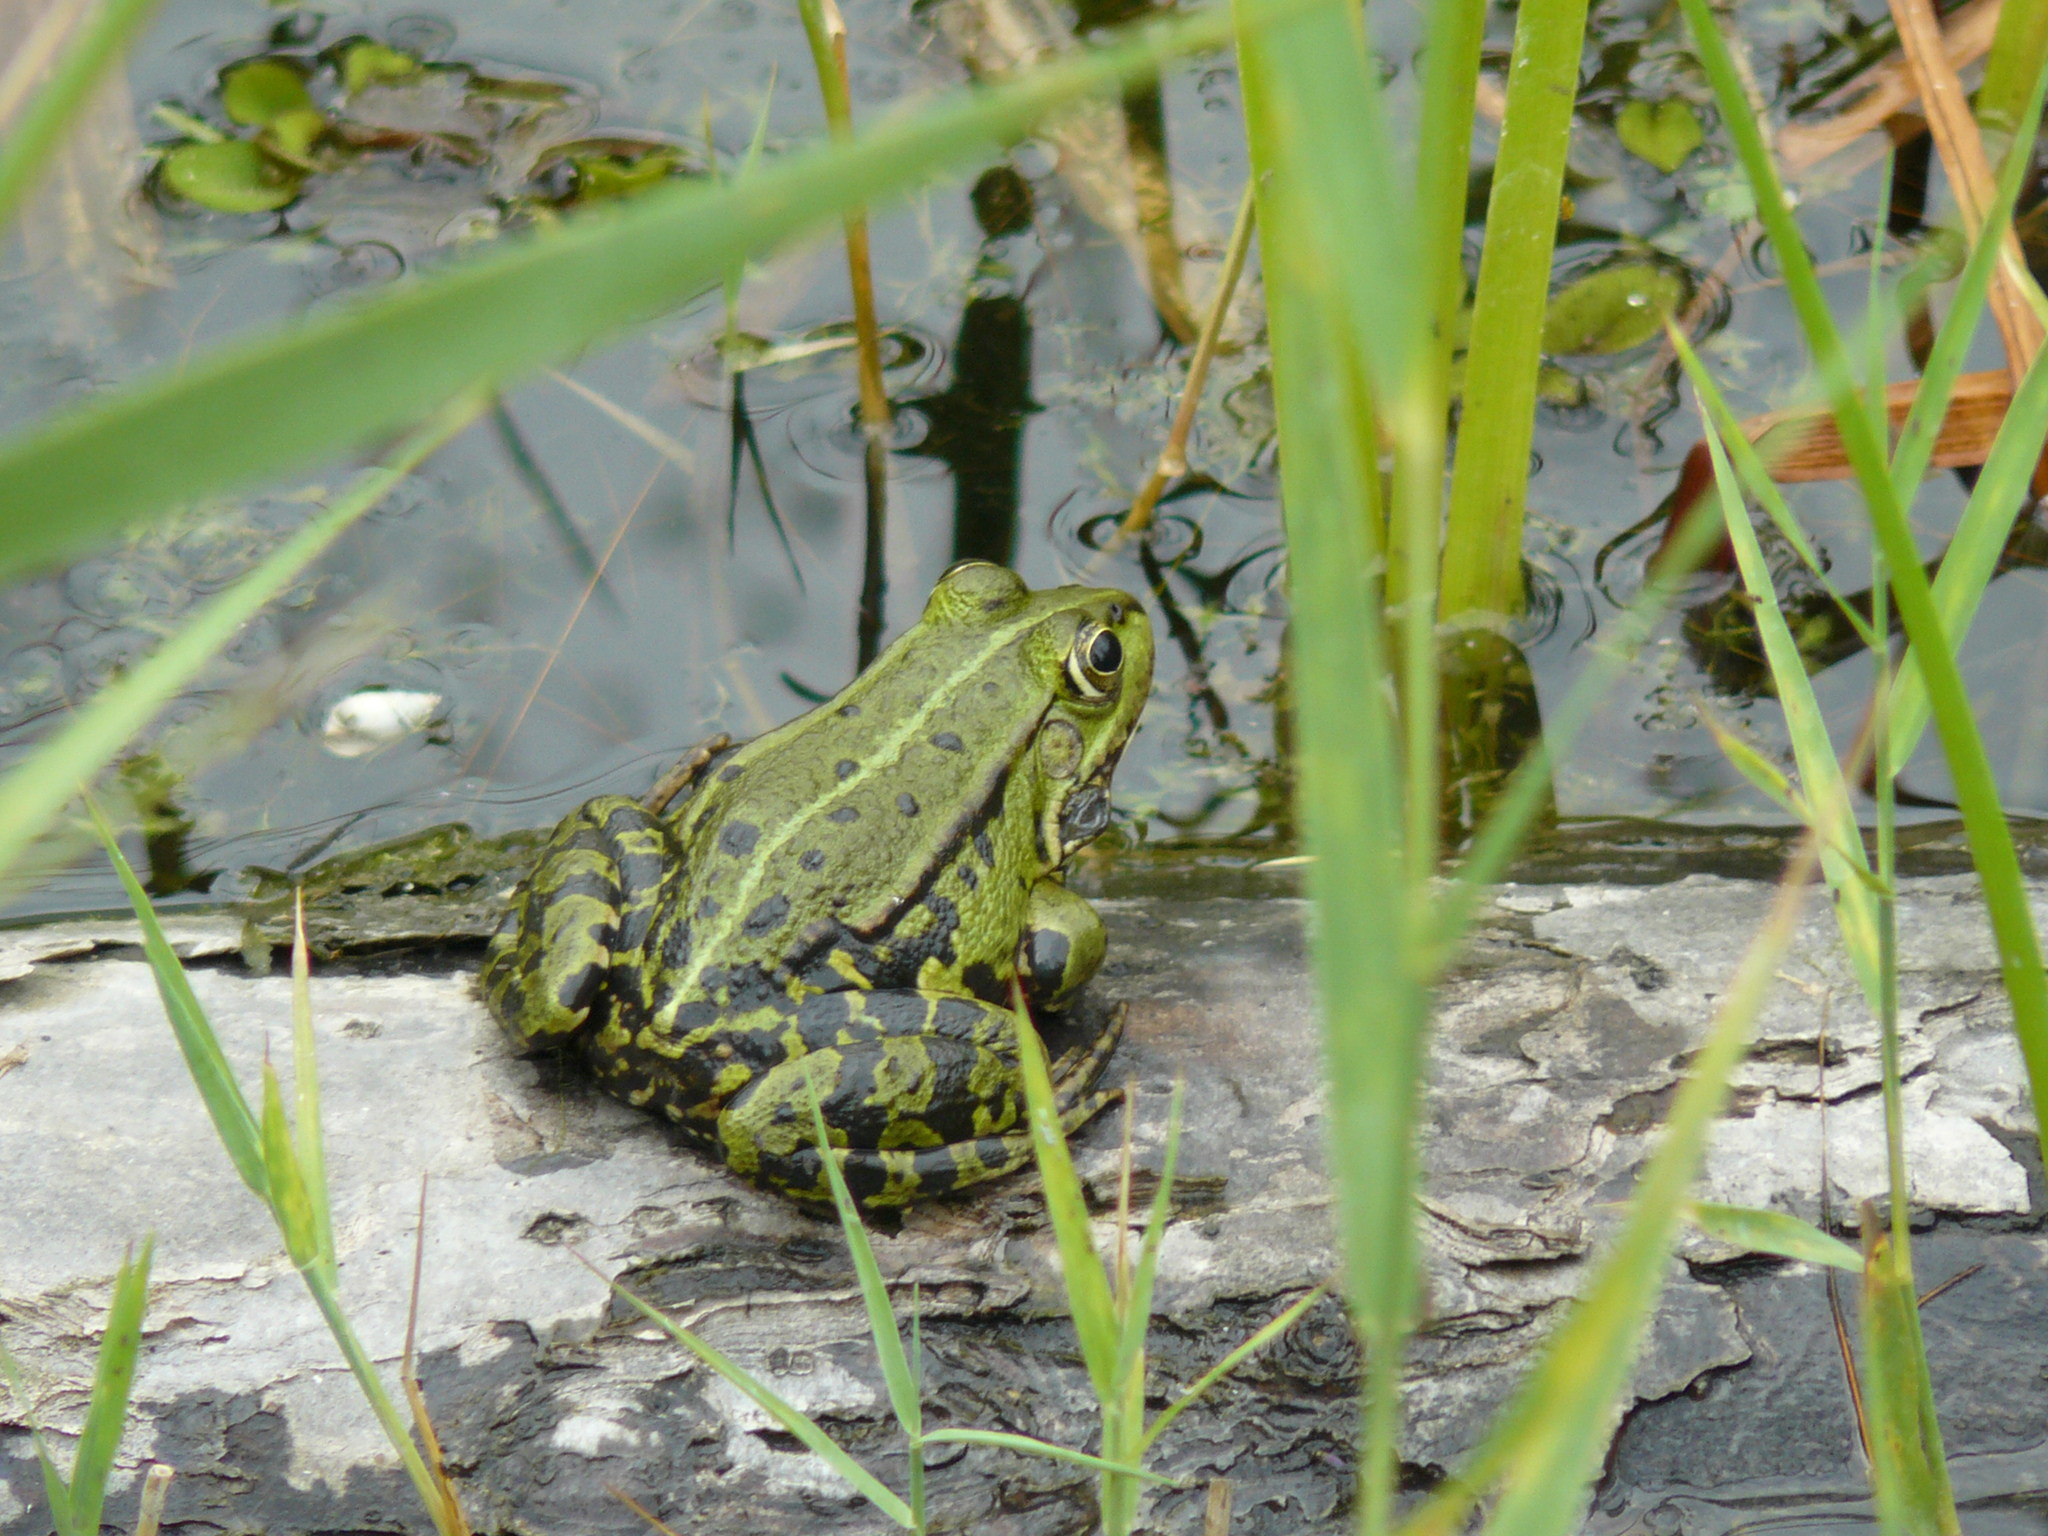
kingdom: Animalia
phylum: Chordata
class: Amphibia
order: Anura
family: Ranidae
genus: Pelophylax
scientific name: Pelophylax
